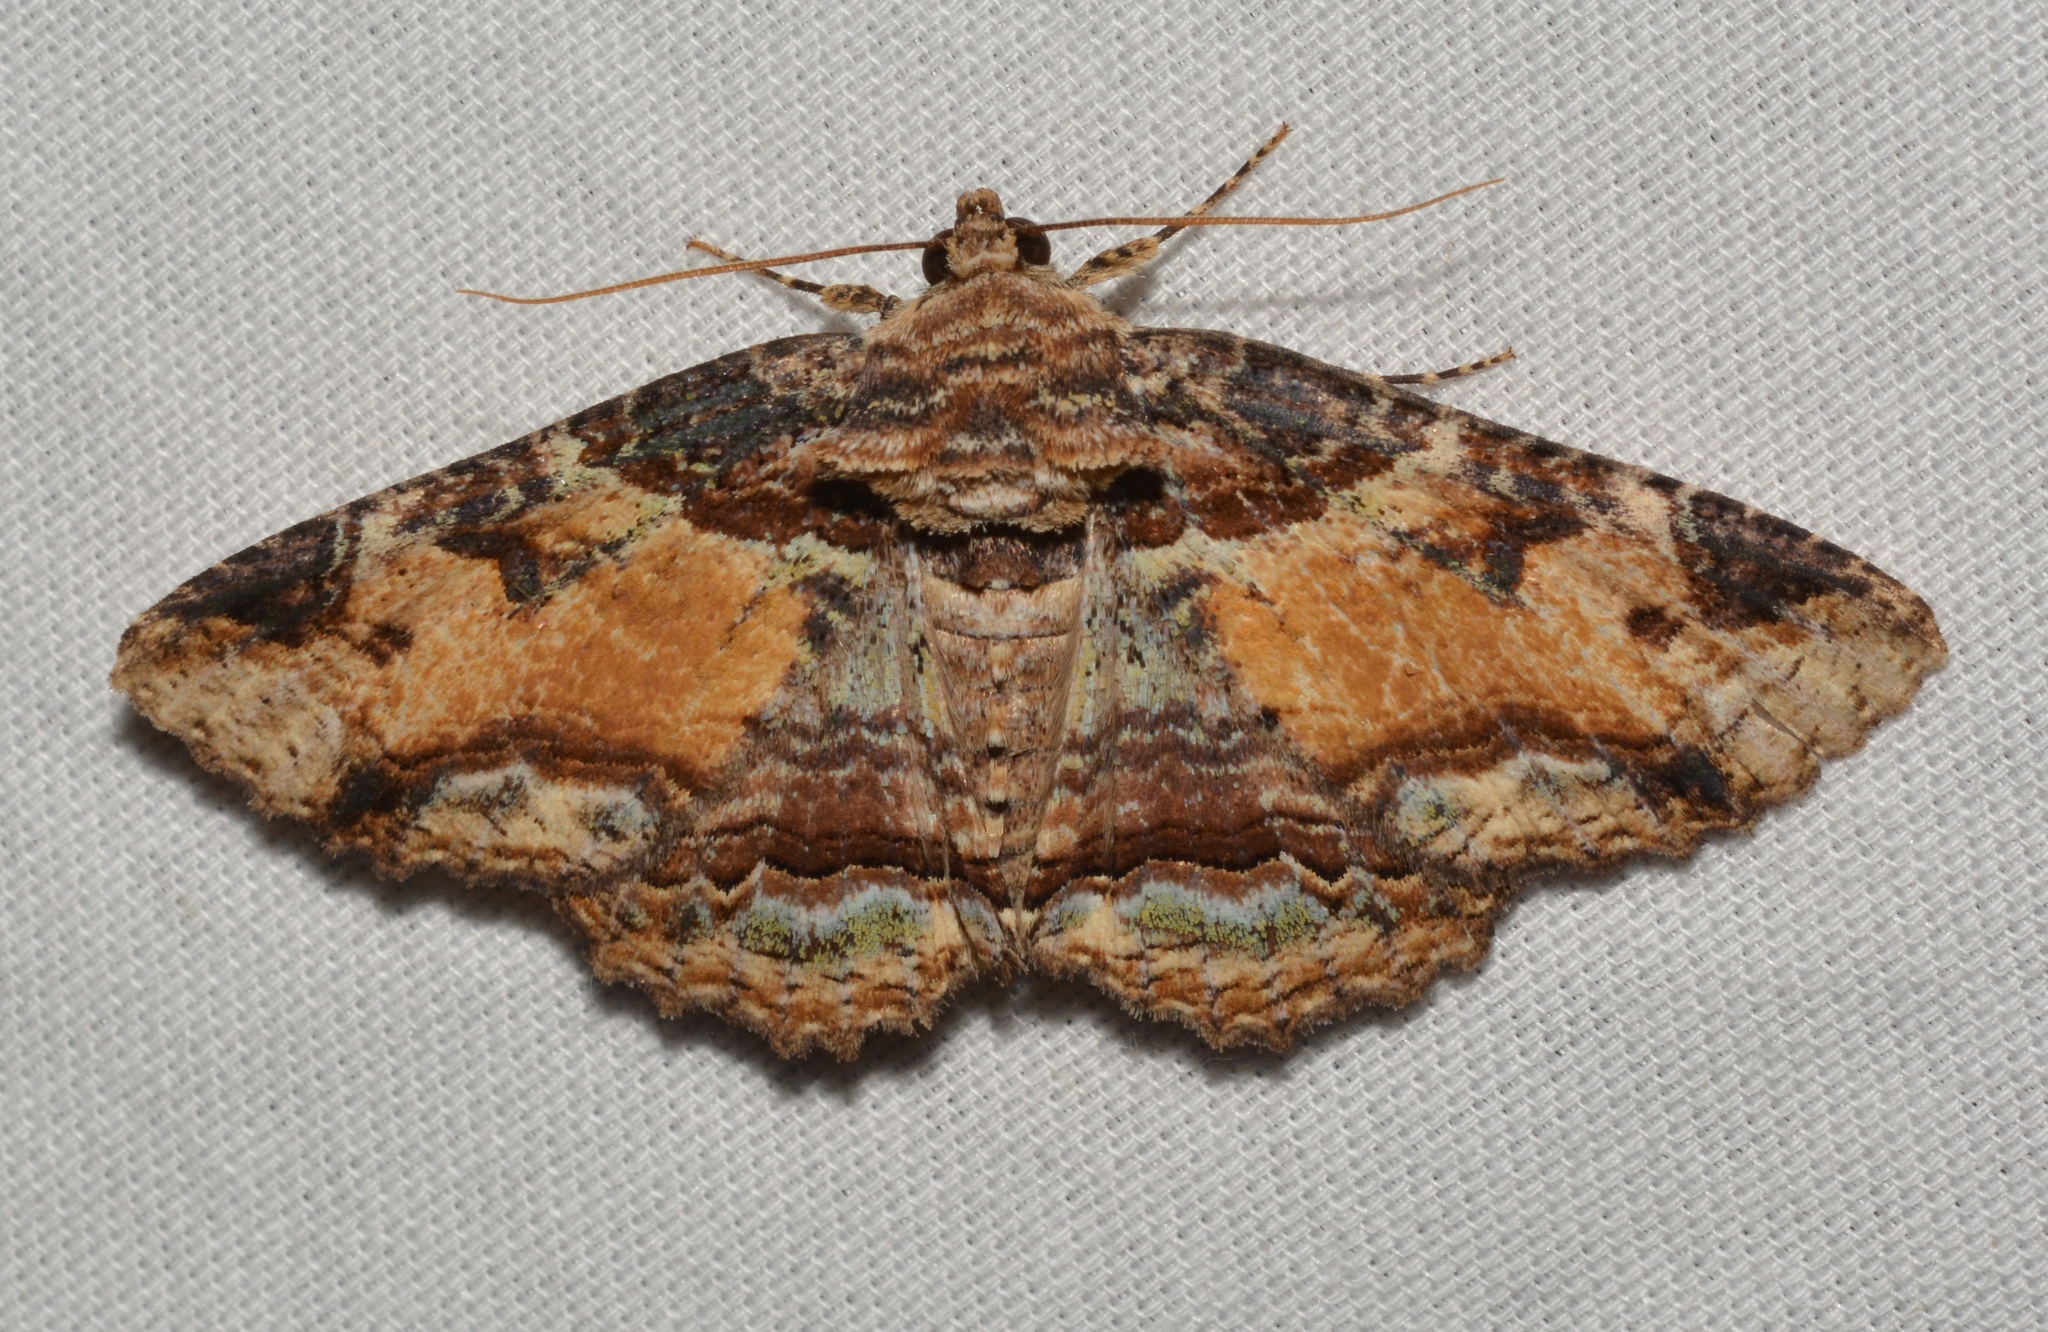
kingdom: Animalia
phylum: Arthropoda
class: Insecta
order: Lepidoptera
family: Erebidae
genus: Zale
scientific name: Zale minerea
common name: Colorful zale moth
